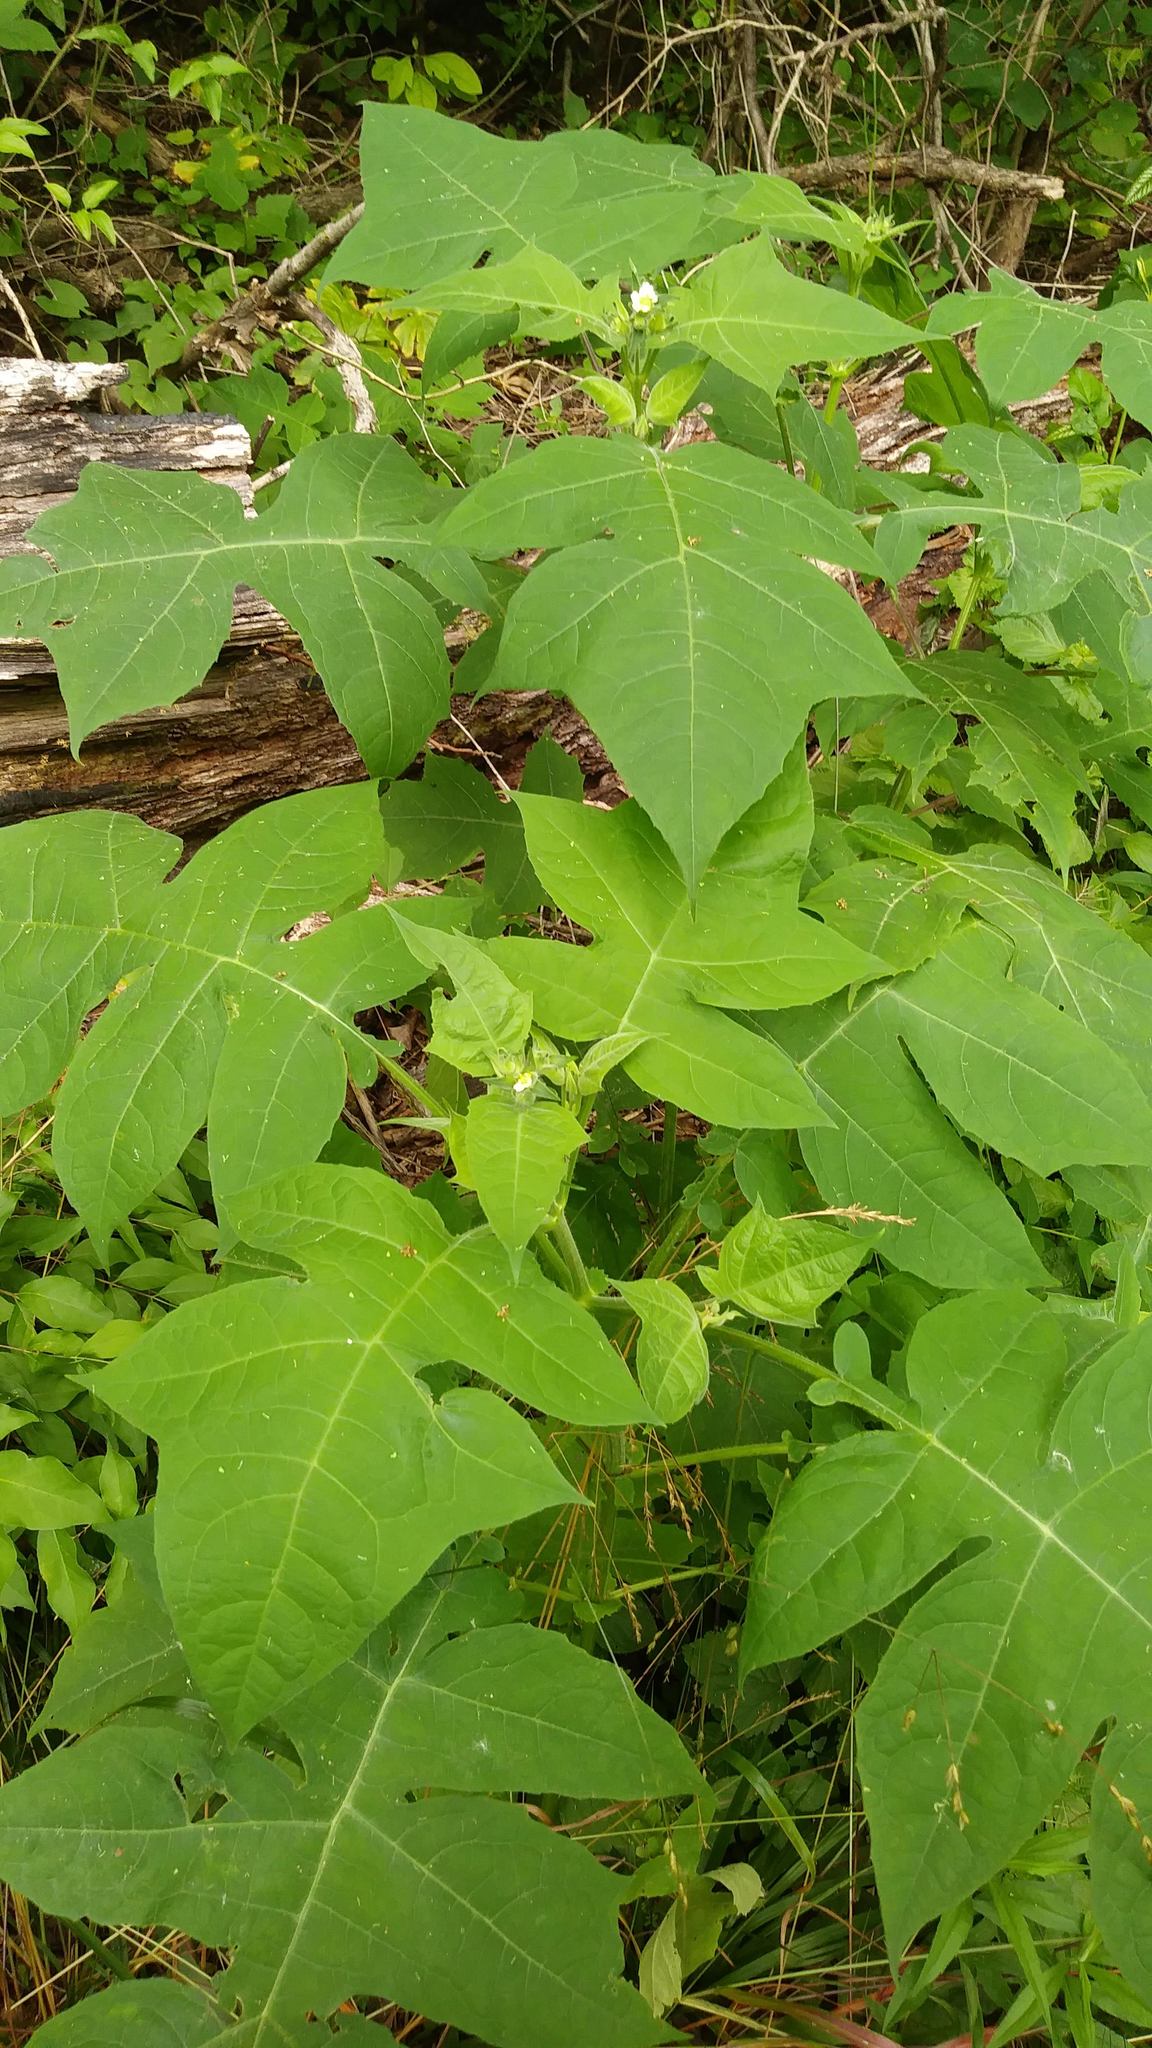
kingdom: Plantae
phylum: Tracheophyta
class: Magnoliopsida
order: Asterales
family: Asteraceae
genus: Polymnia
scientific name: Polymnia canadensis
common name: Pale-flowered leafcup
